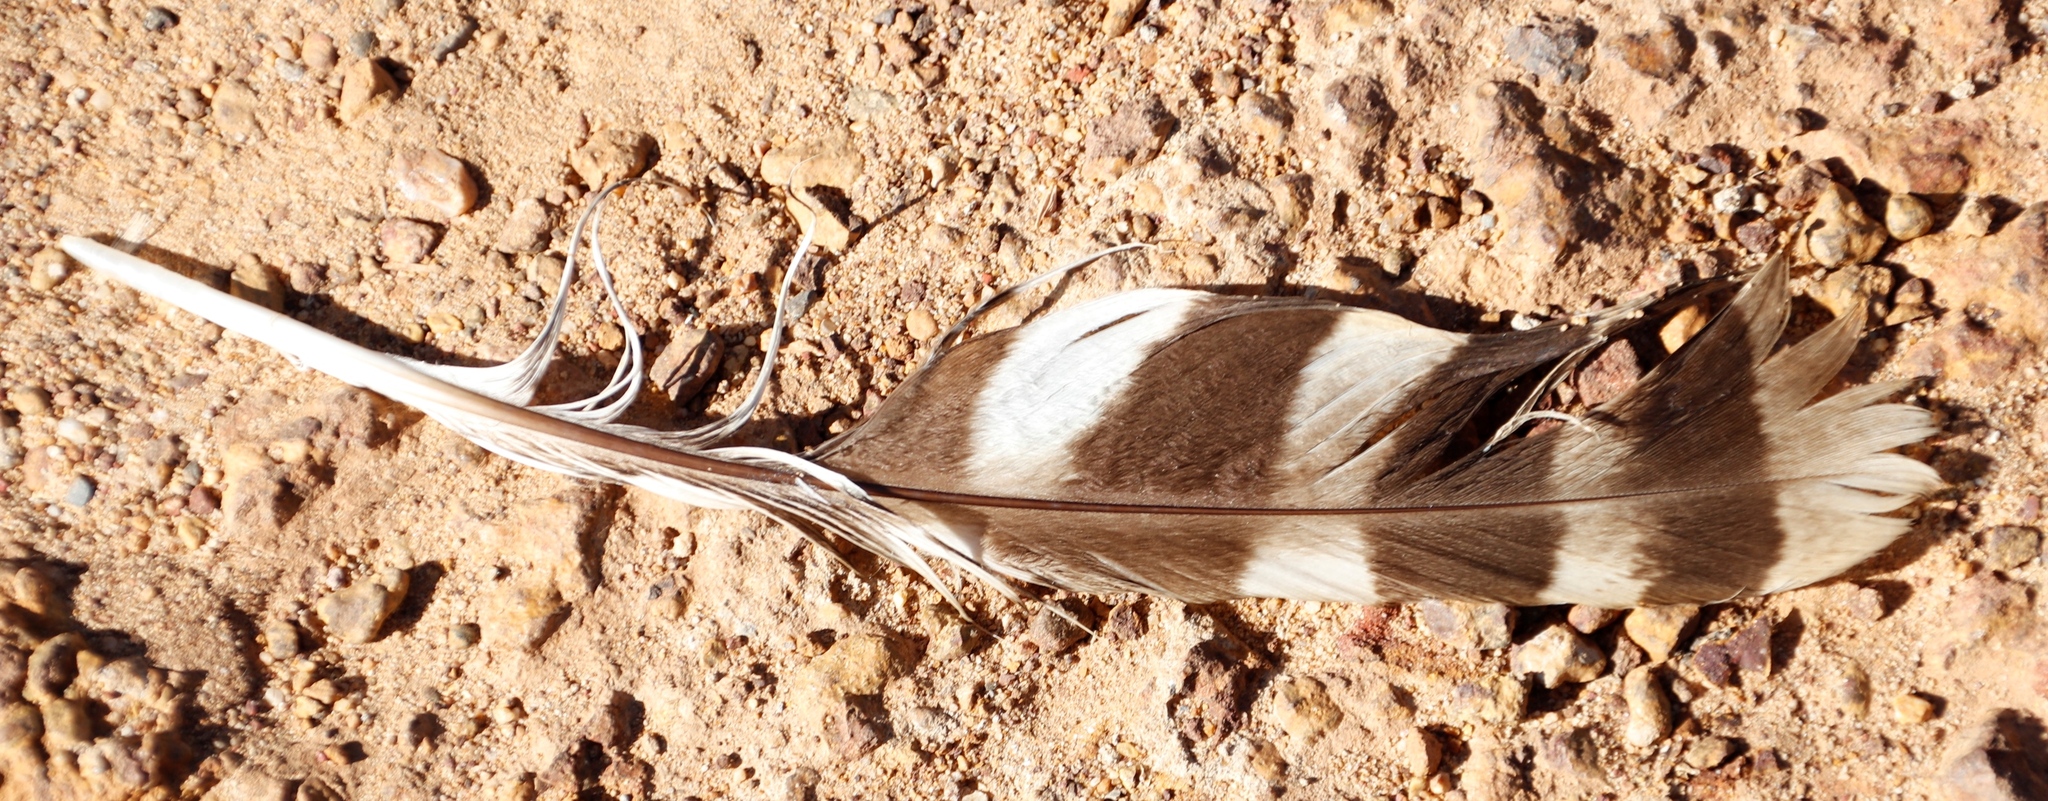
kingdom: Animalia
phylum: Chordata
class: Aves
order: Strigiformes
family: Strigidae
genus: Bubo
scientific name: Bubo africanus
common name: Spotted eagle-owl
